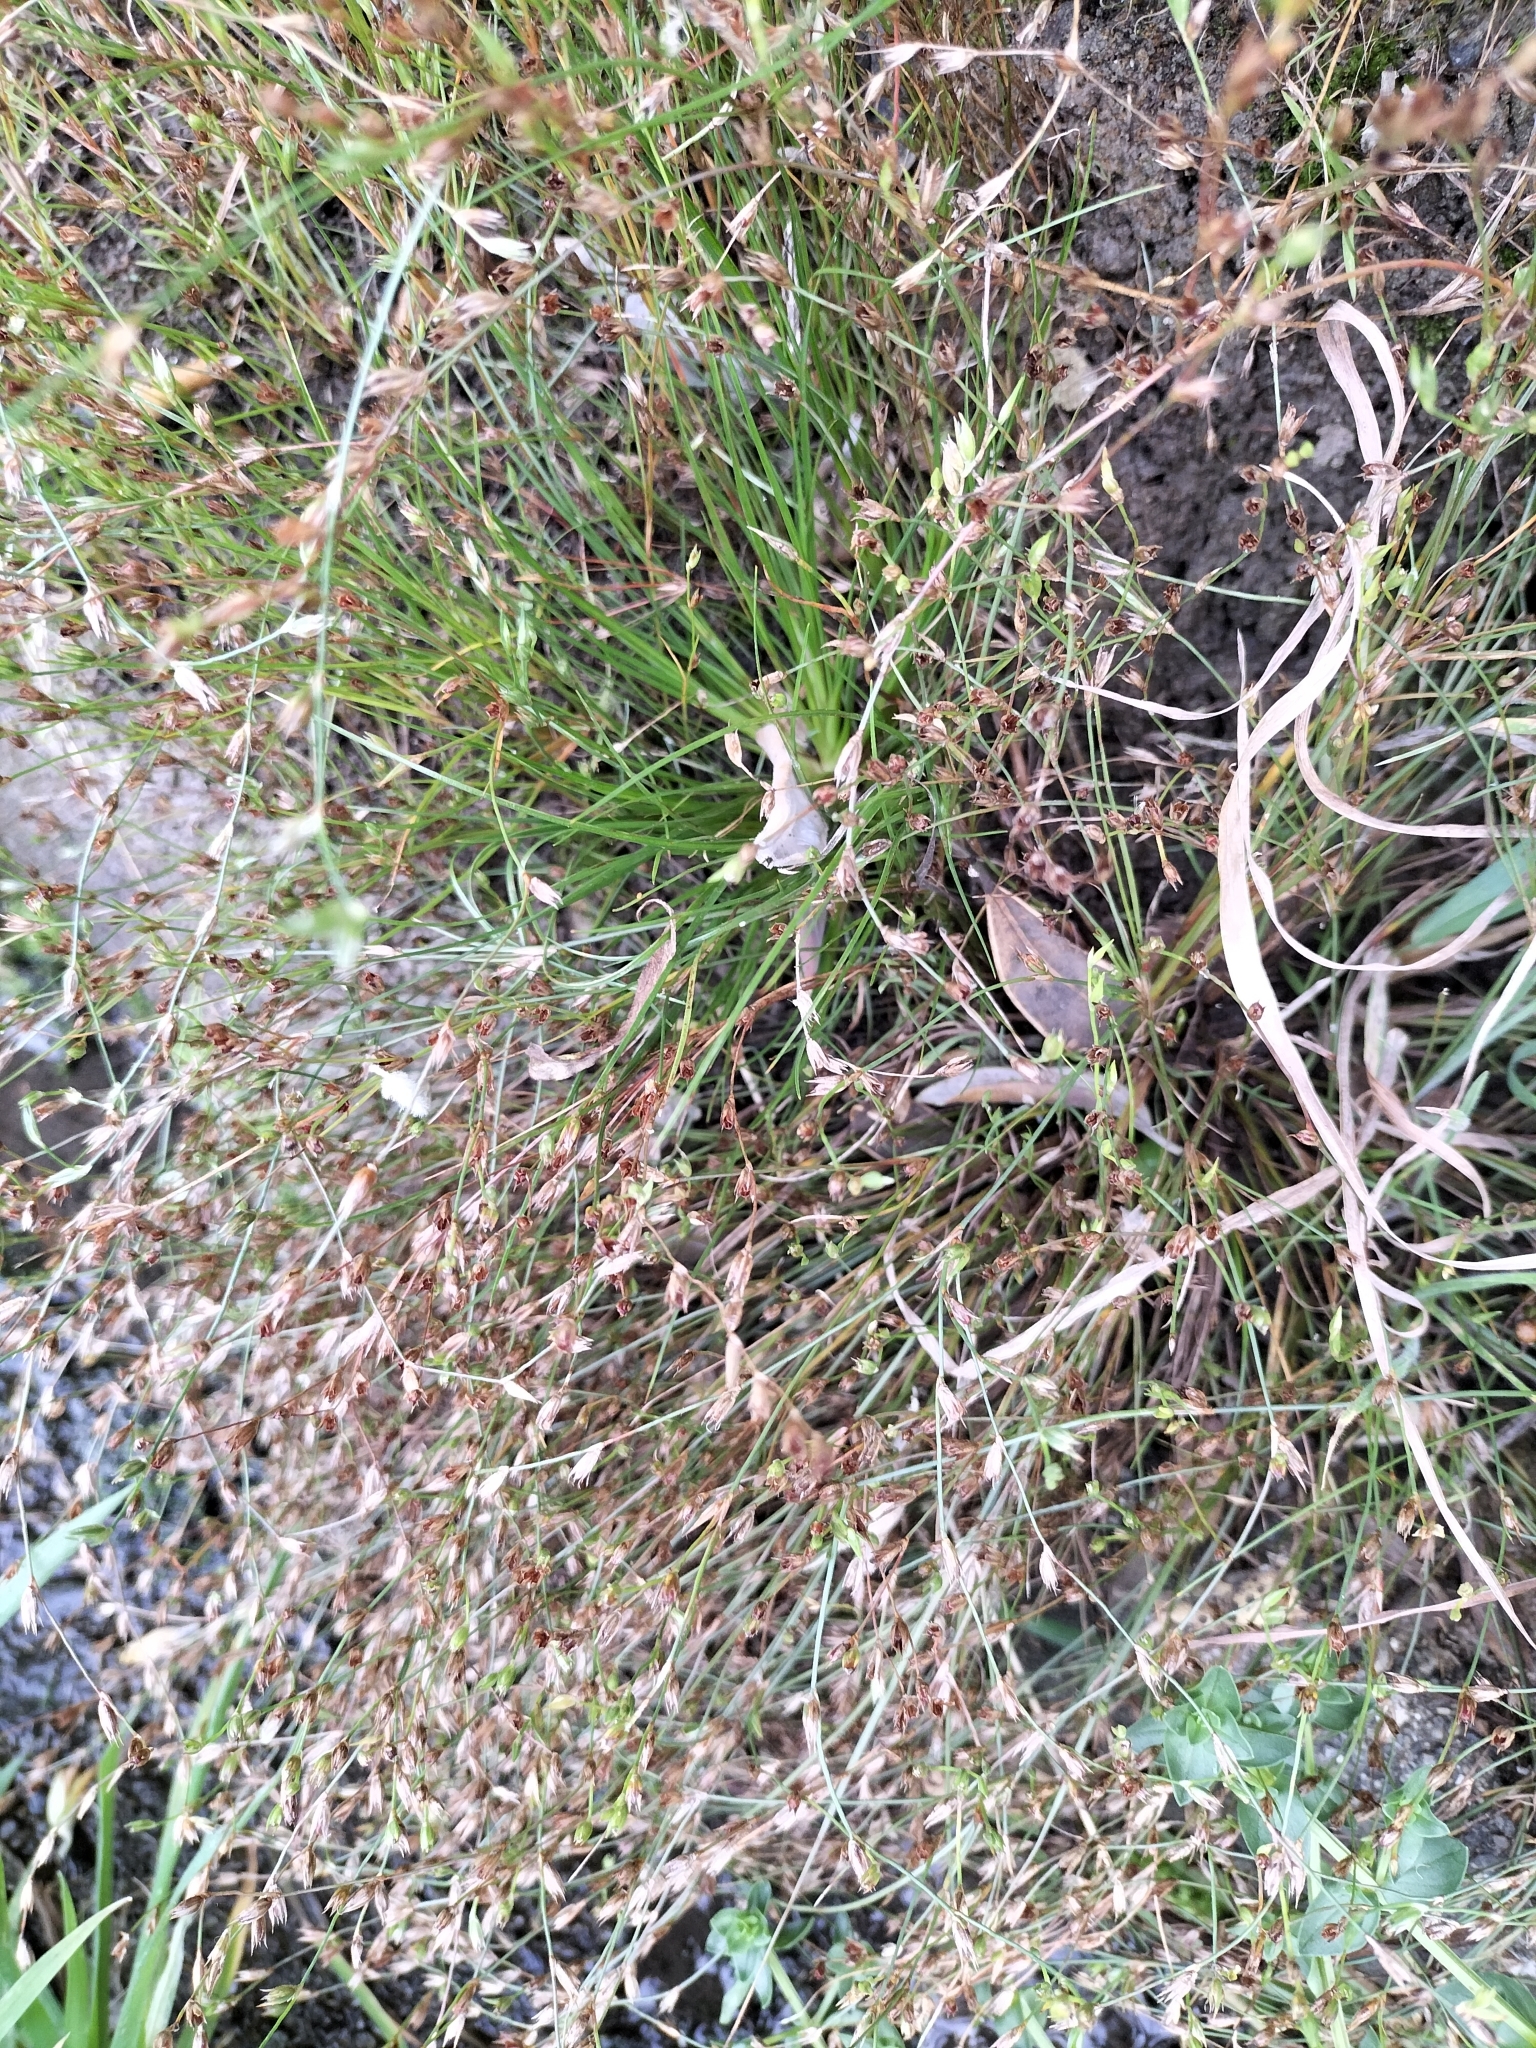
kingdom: Plantae
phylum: Tracheophyta
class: Liliopsida
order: Poales
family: Juncaceae
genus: Juncus
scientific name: Juncus bufonius
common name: Toad rush
